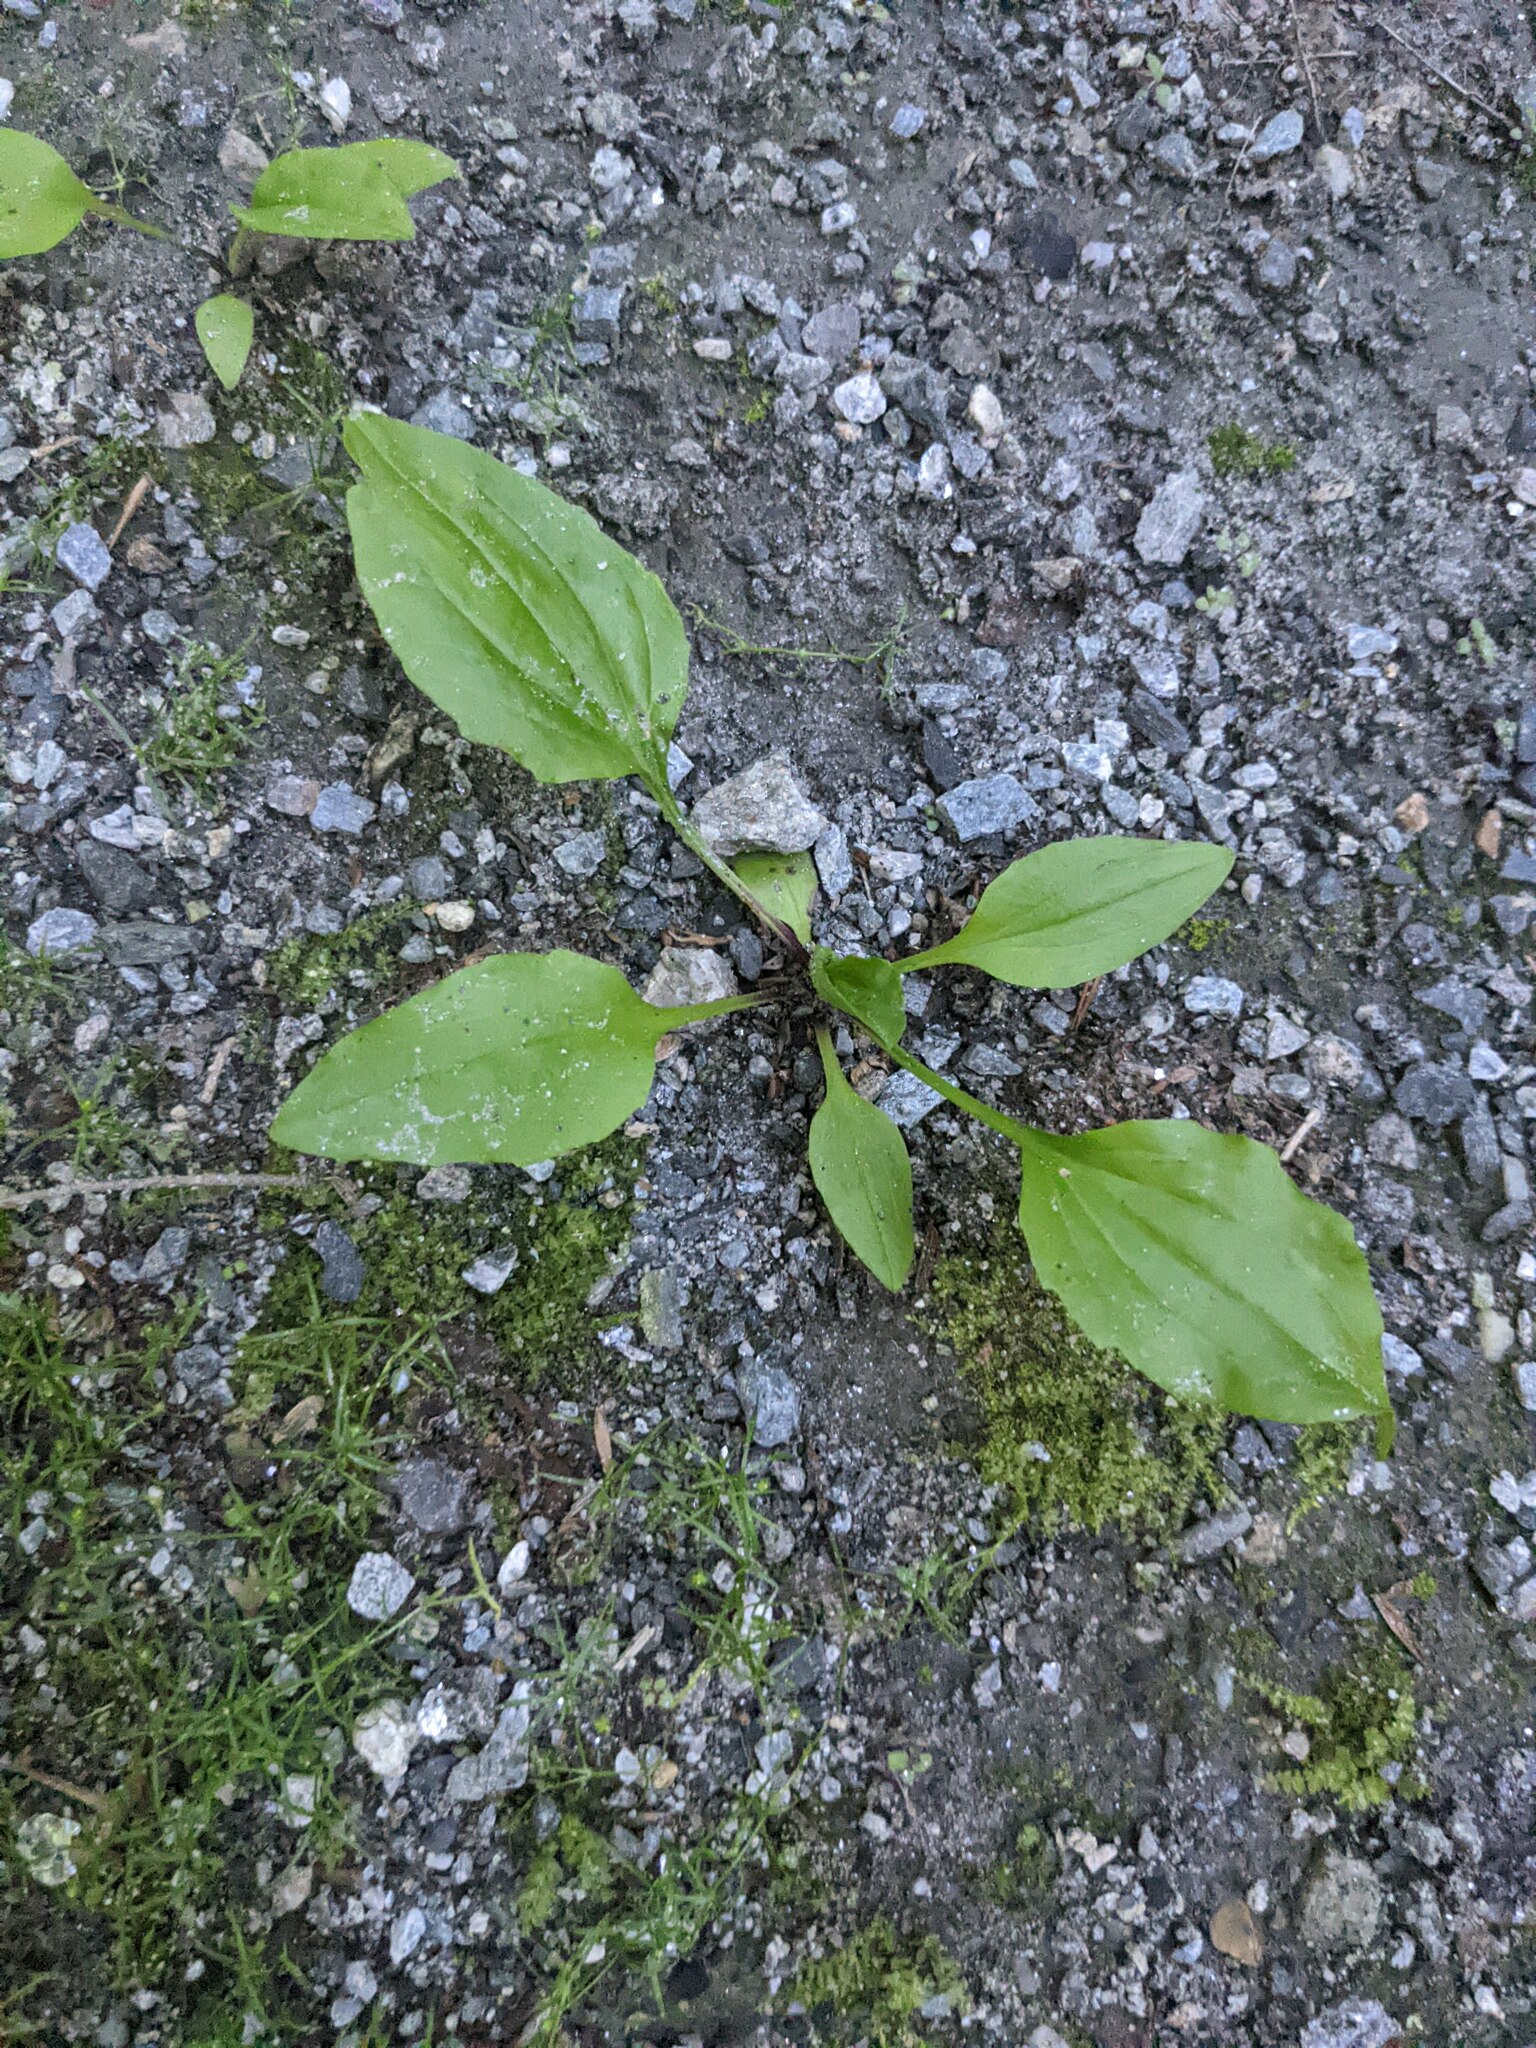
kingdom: Plantae
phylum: Tracheophyta
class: Magnoliopsida
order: Lamiales
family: Plantaginaceae
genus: Plantago
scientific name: Plantago rugelii
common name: American plantain
